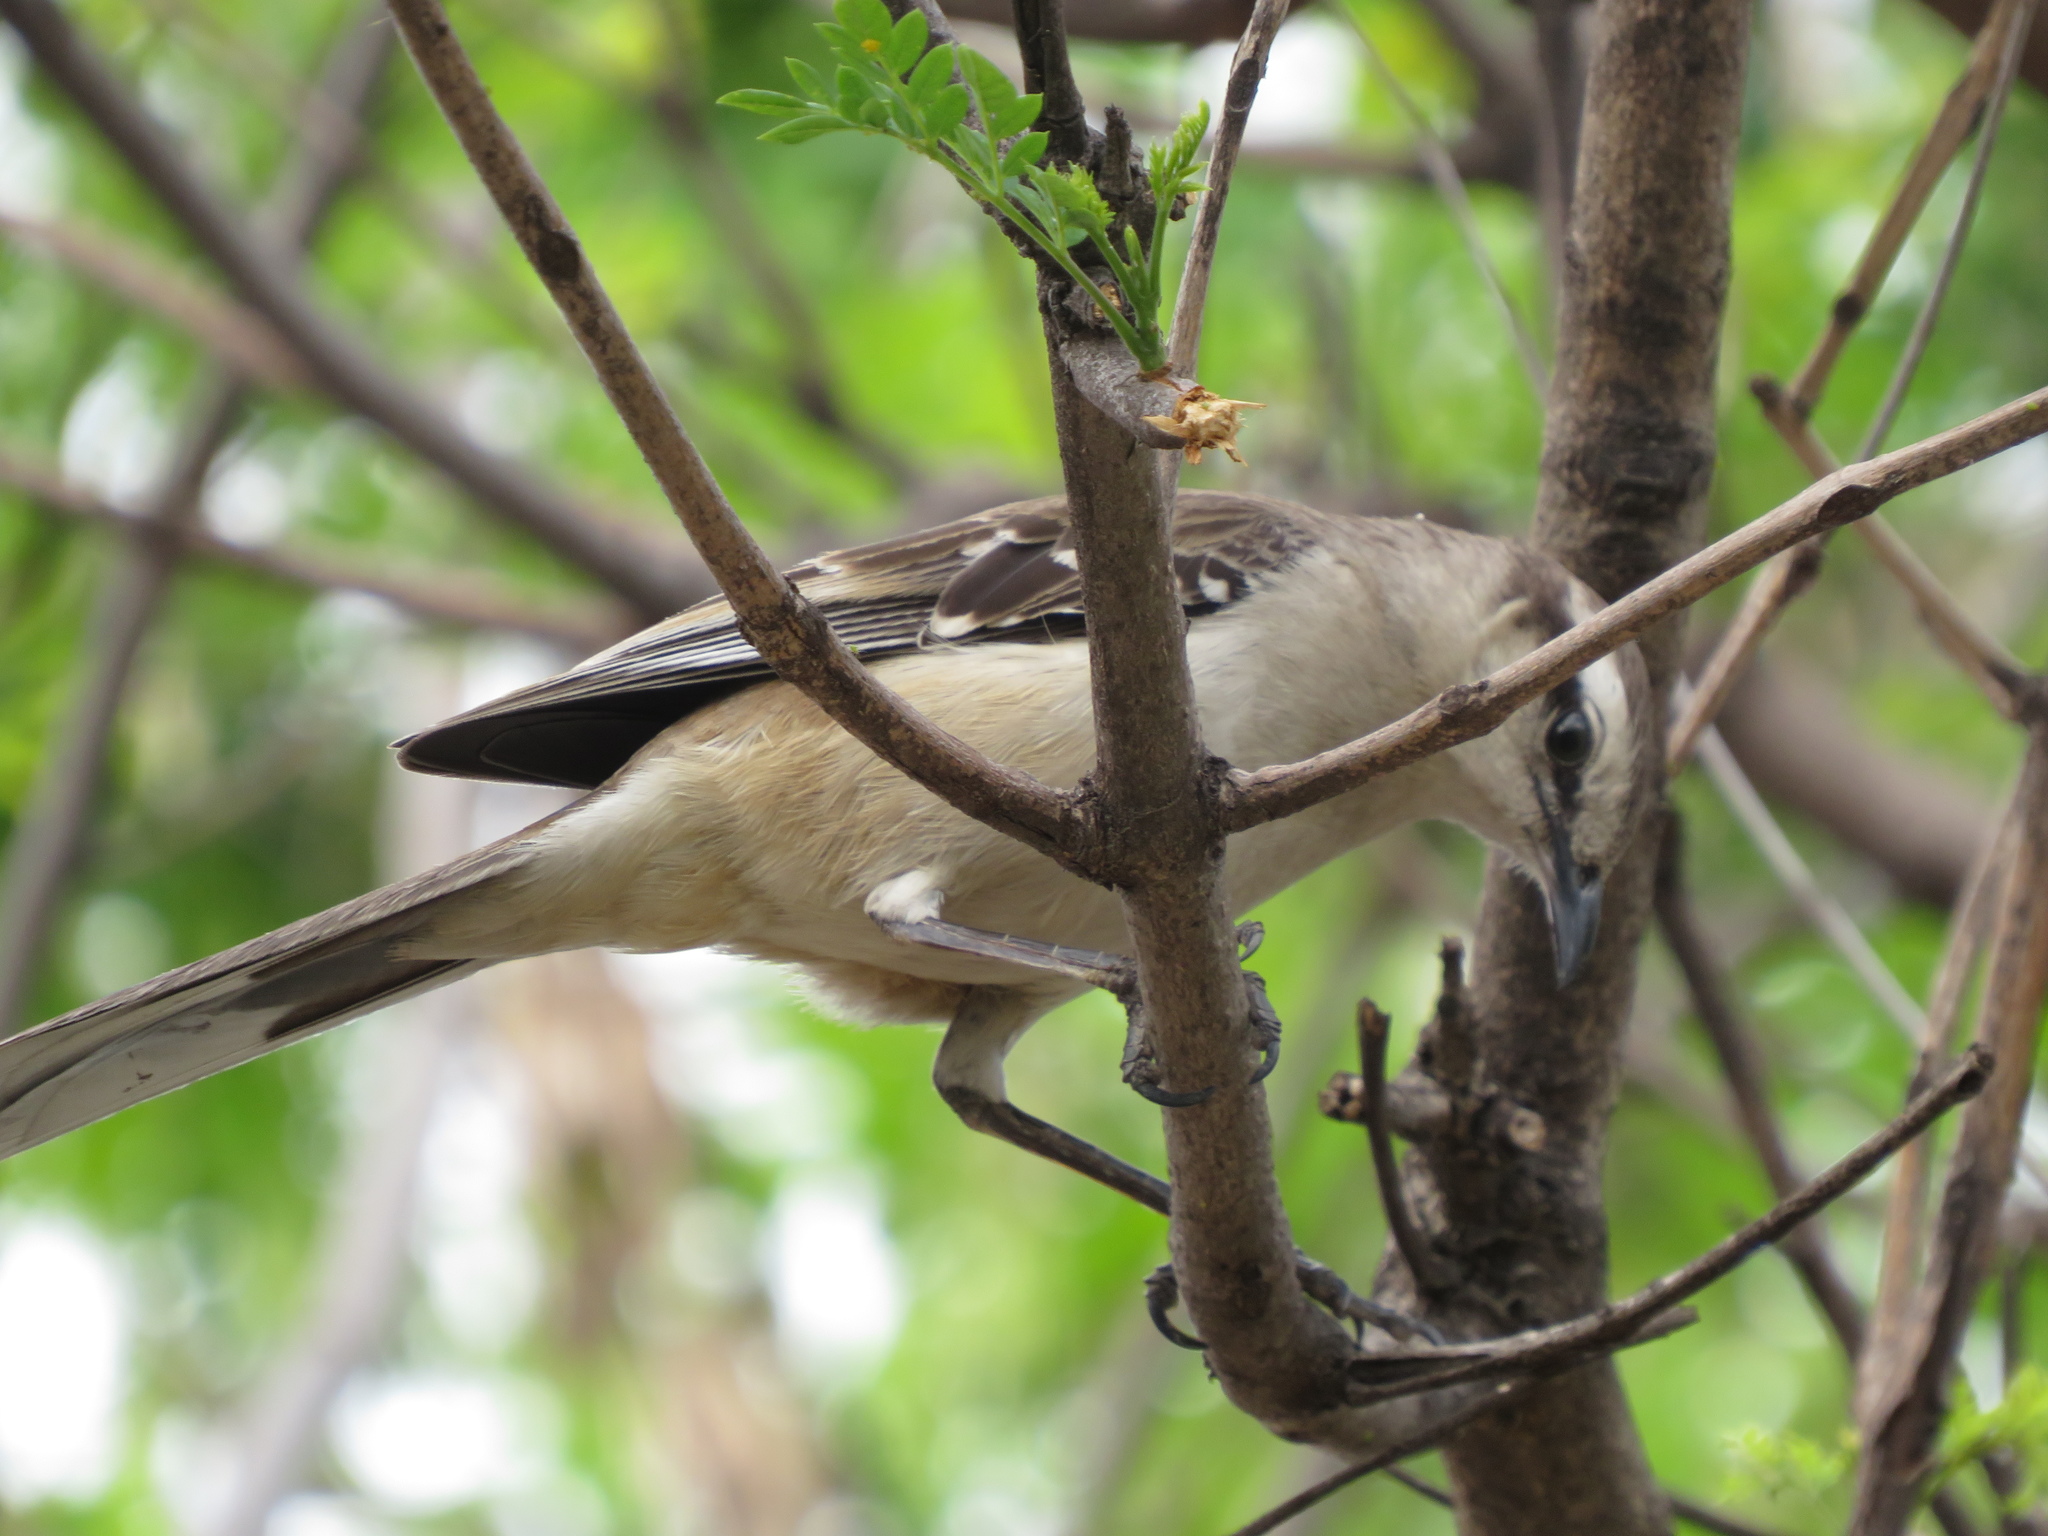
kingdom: Animalia
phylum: Chordata
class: Aves
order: Passeriformes
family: Mimidae
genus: Mimus
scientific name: Mimus saturninus
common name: Chalk-browed mockingbird
